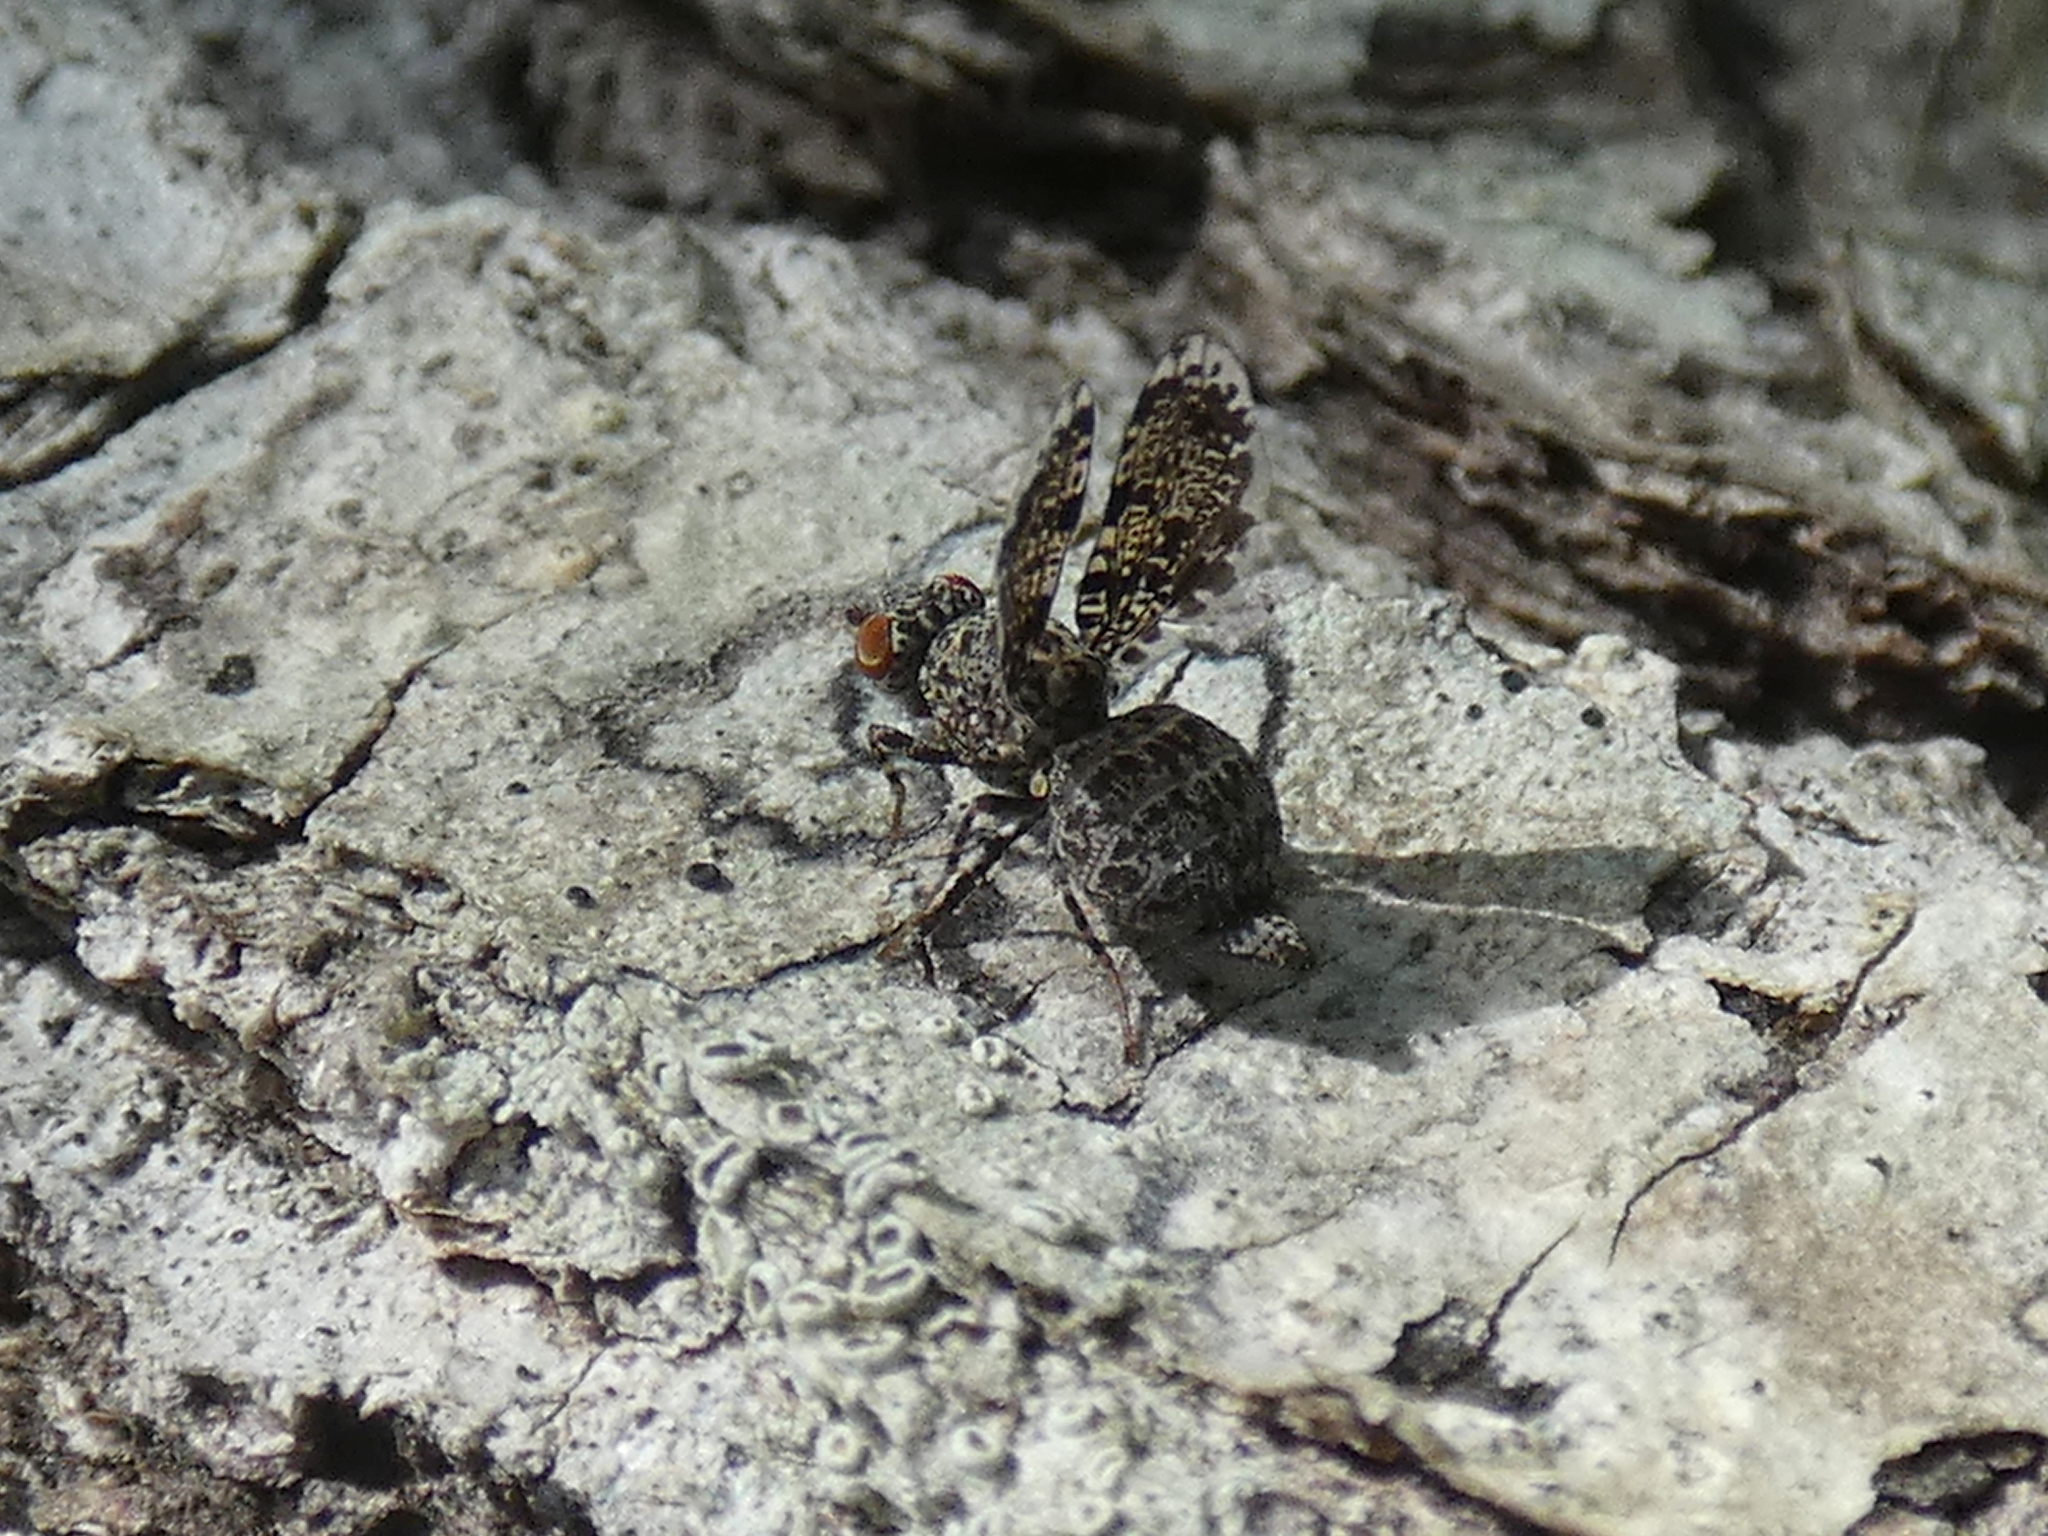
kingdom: Animalia
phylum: Arthropoda
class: Insecta
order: Diptera
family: Ulidiidae
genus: Callopistromyia
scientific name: Callopistromyia annulipes
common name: Peacock fly
